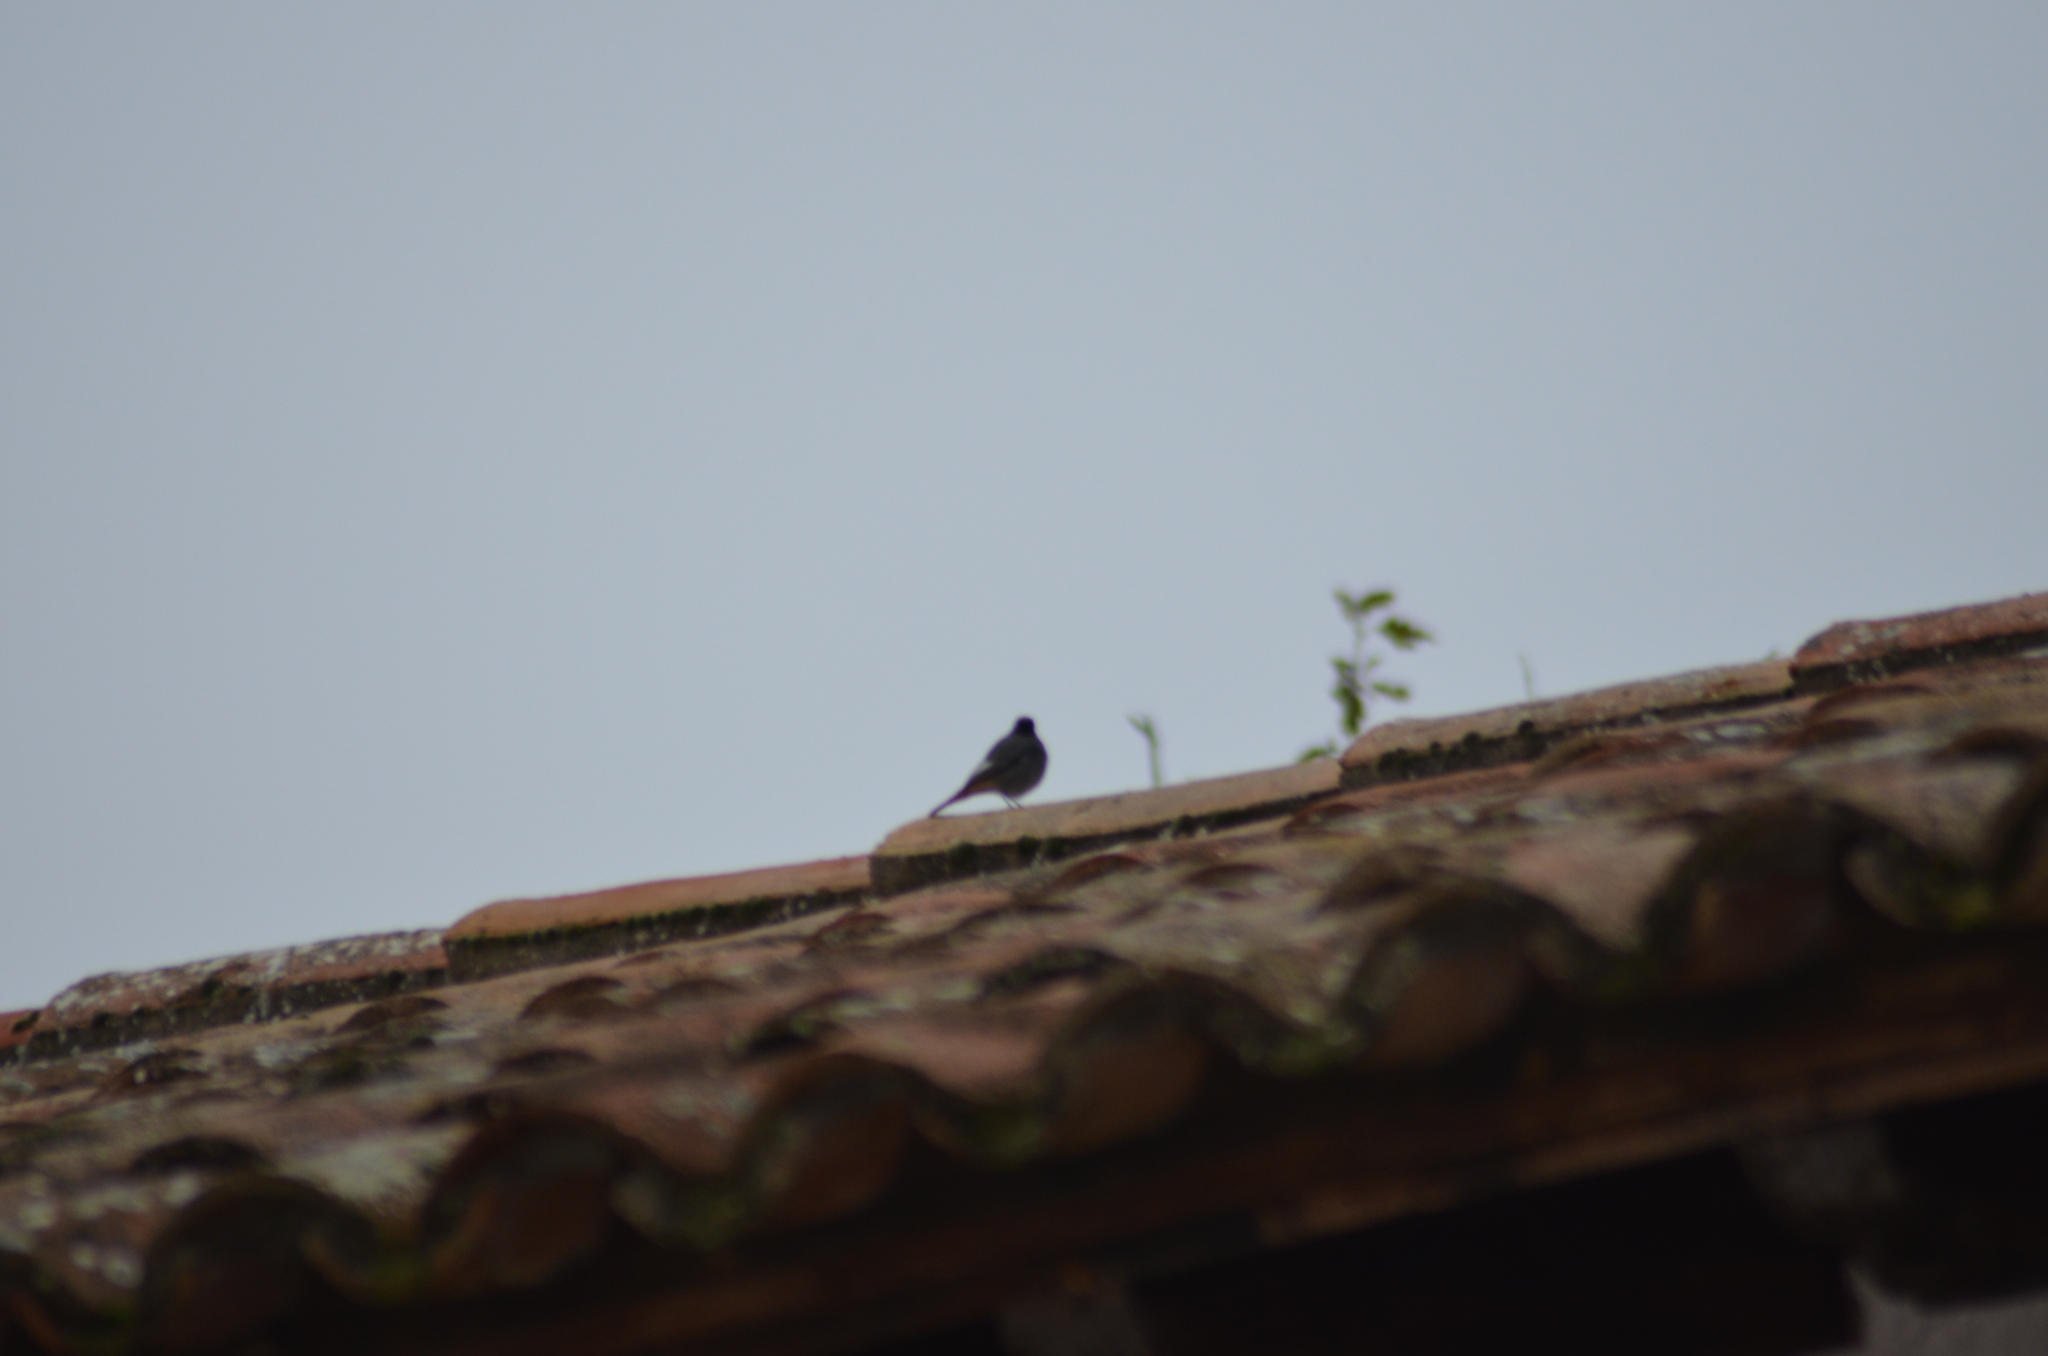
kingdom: Animalia
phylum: Chordata
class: Aves
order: Passeriformes
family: Muscicapidae
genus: Phoenicurus
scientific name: Phoenicurus ochruros
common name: Black redstart
